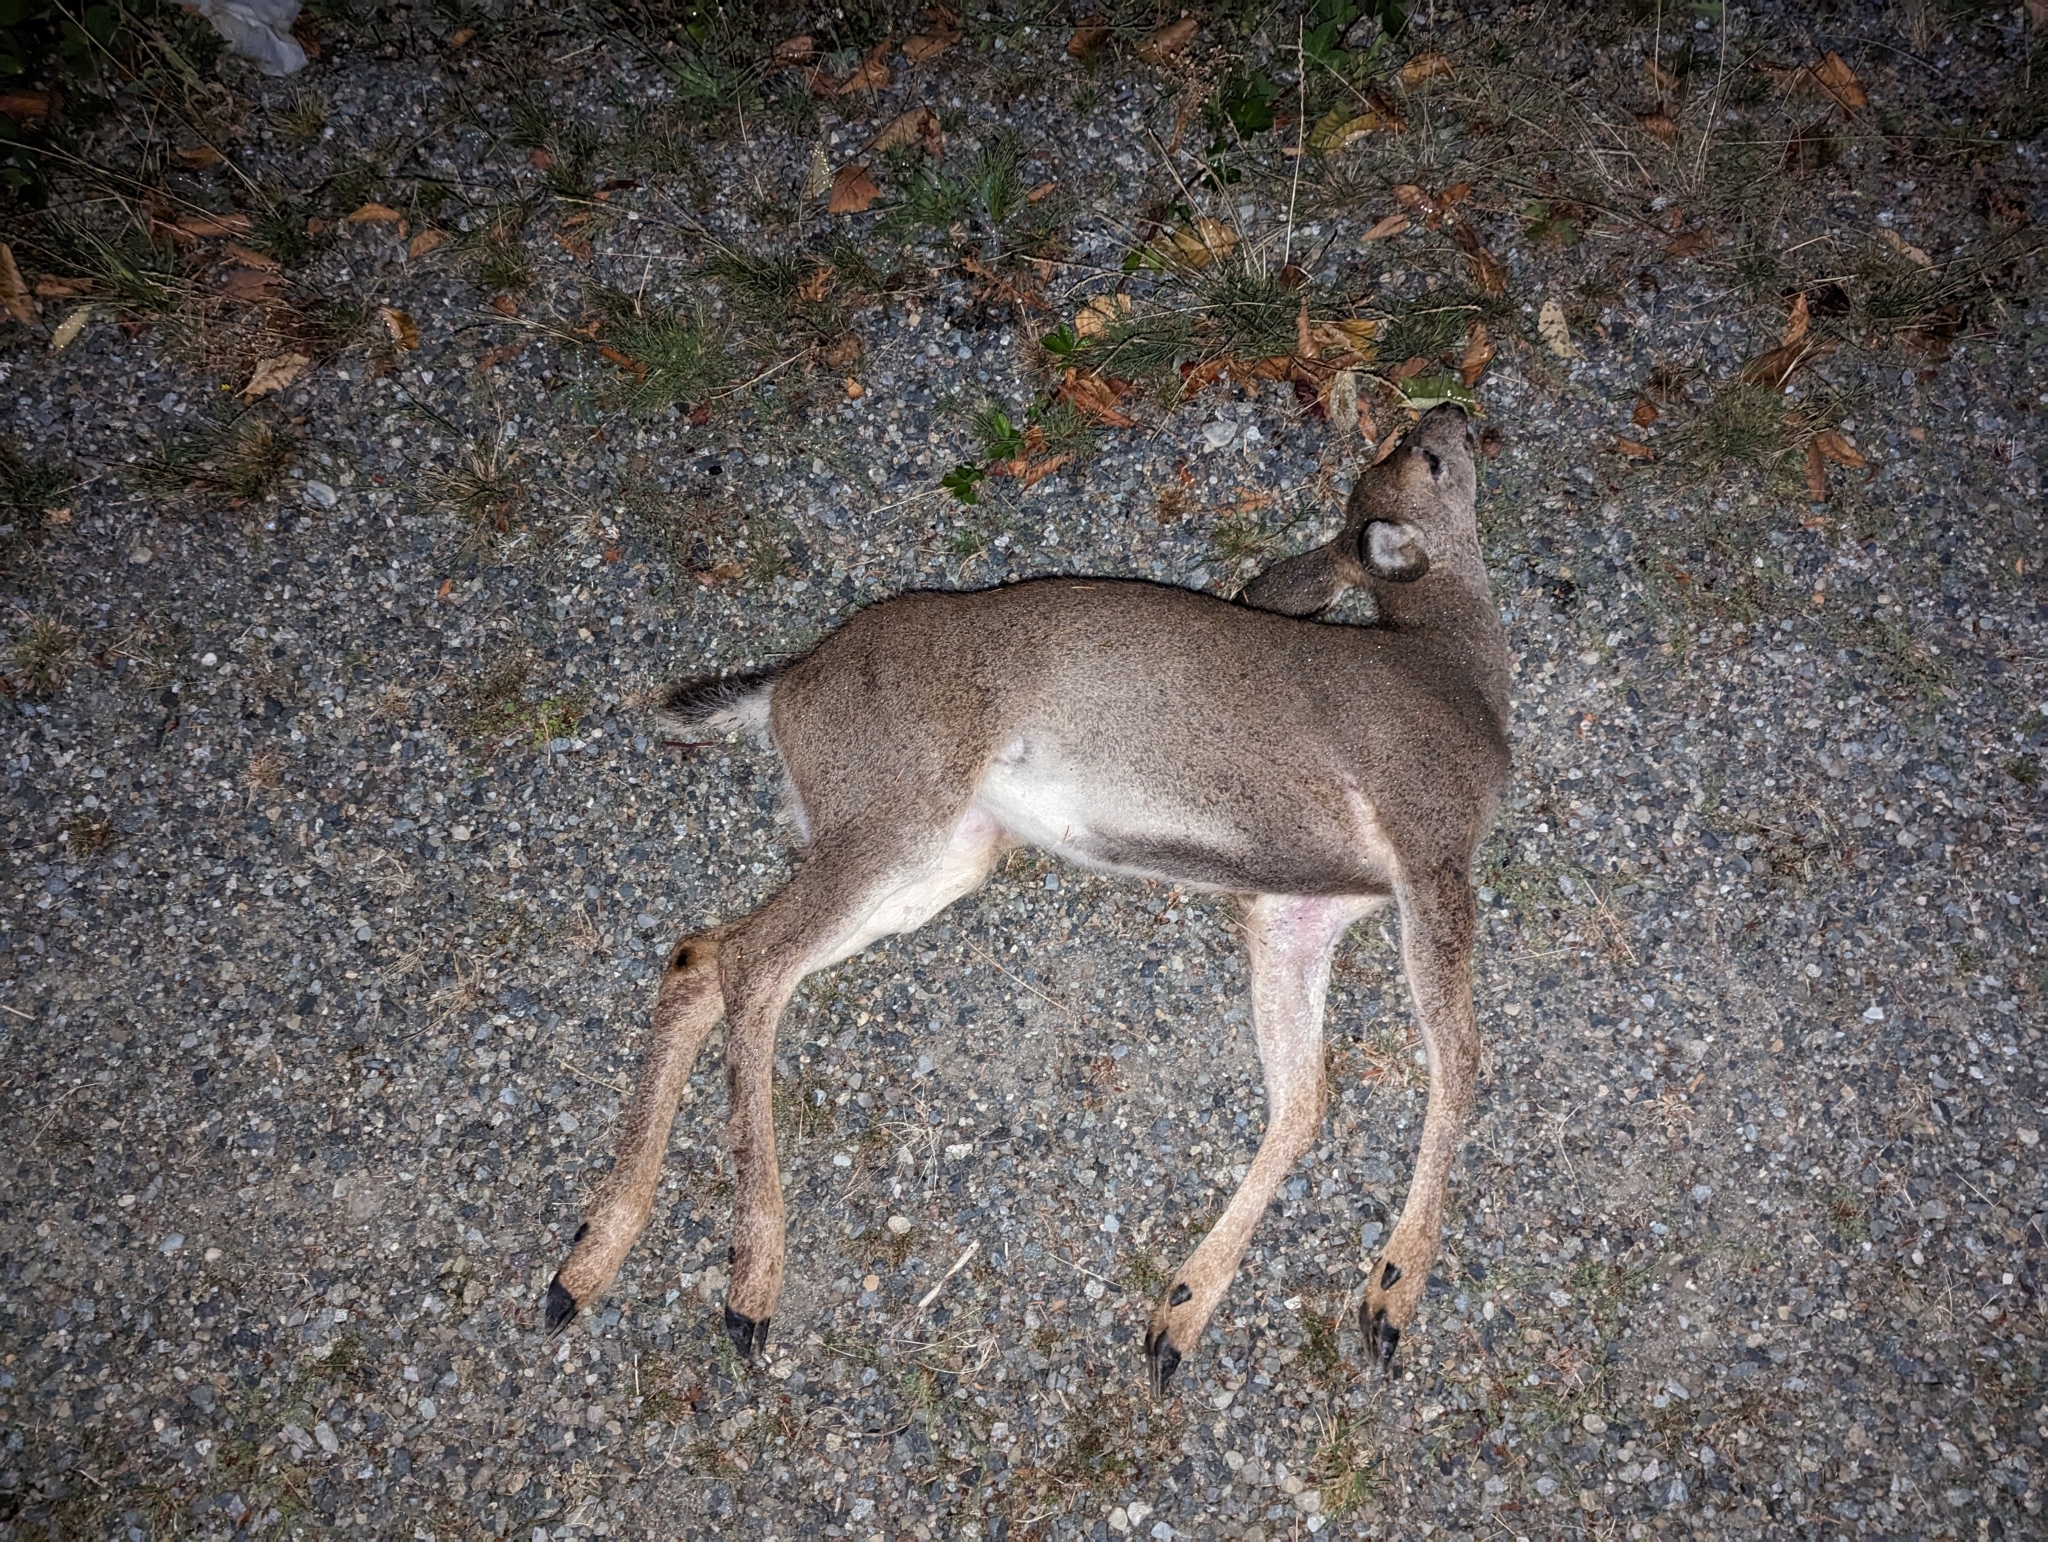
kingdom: Animalia
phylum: Chordata
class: Mammalia
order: Artiodactyla
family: Cervidae
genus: Odocoileus
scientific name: Odocoileus hemionus
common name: Mule deer
